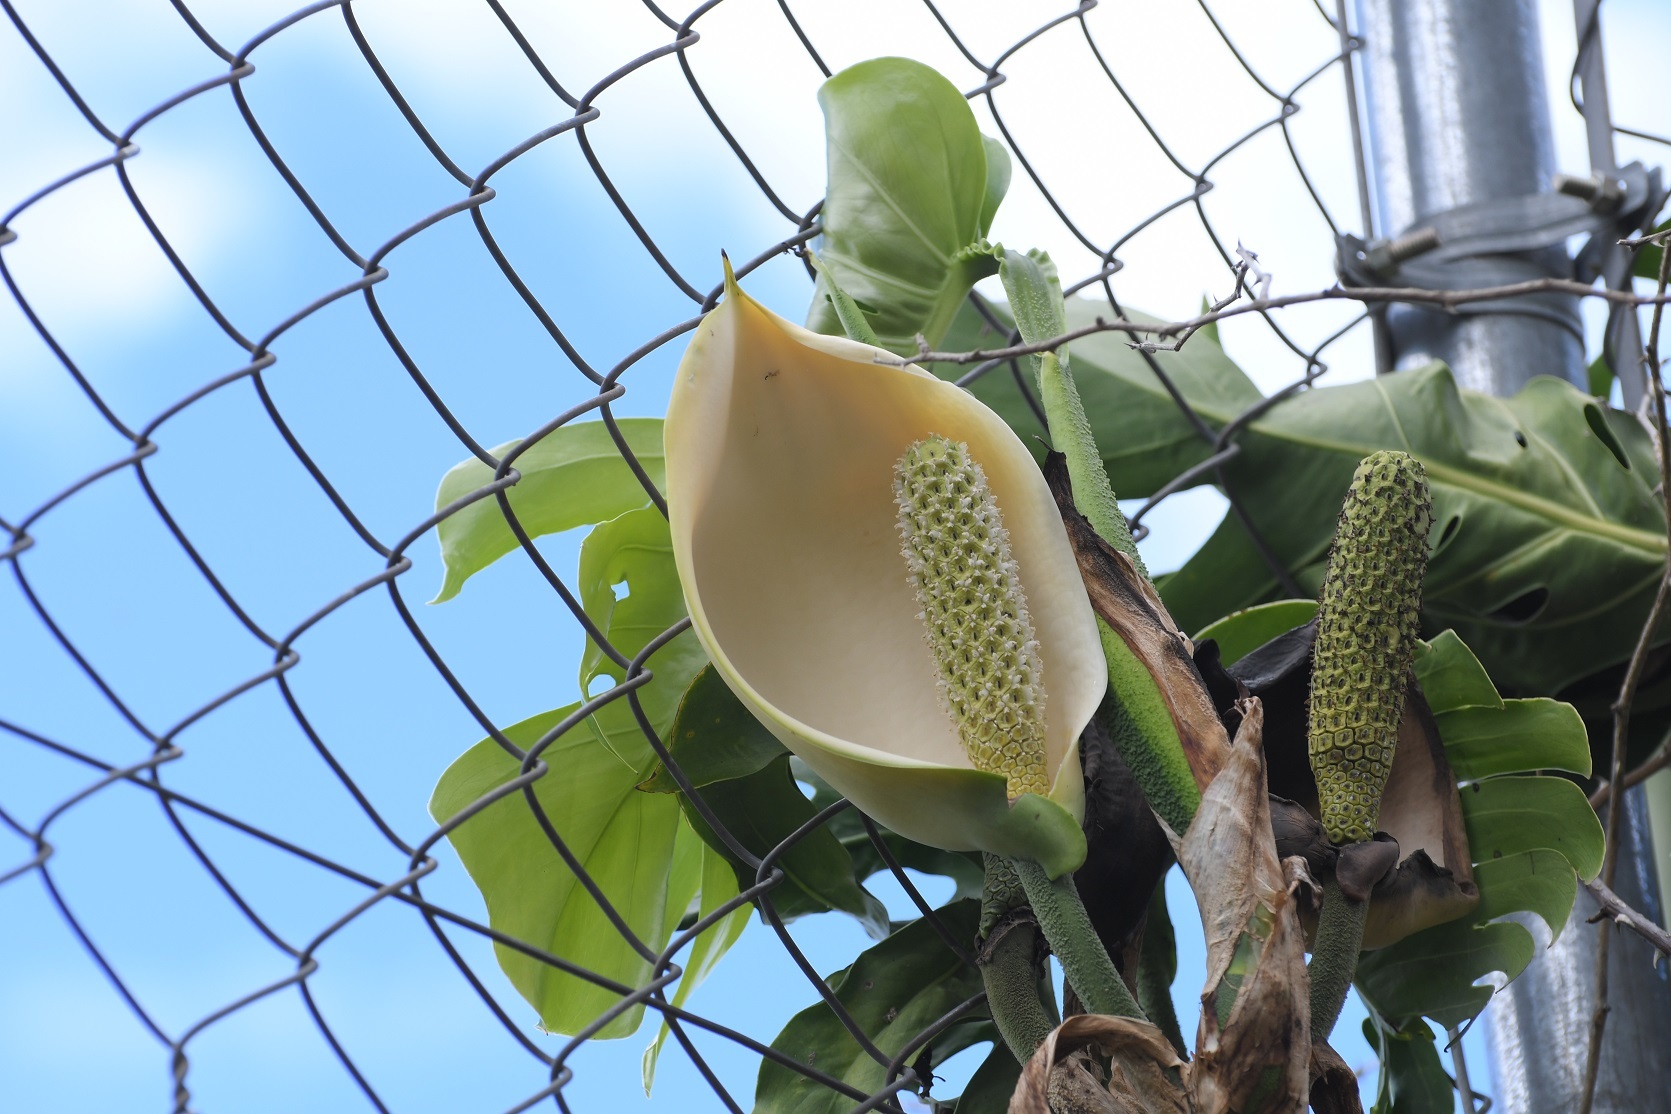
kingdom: Plantae
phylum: Tracheophyta
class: Liliopsida
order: Alismatales
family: Araceae
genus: Monstera
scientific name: Monstera deliciosa
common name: Cut-leaf-philodendron
